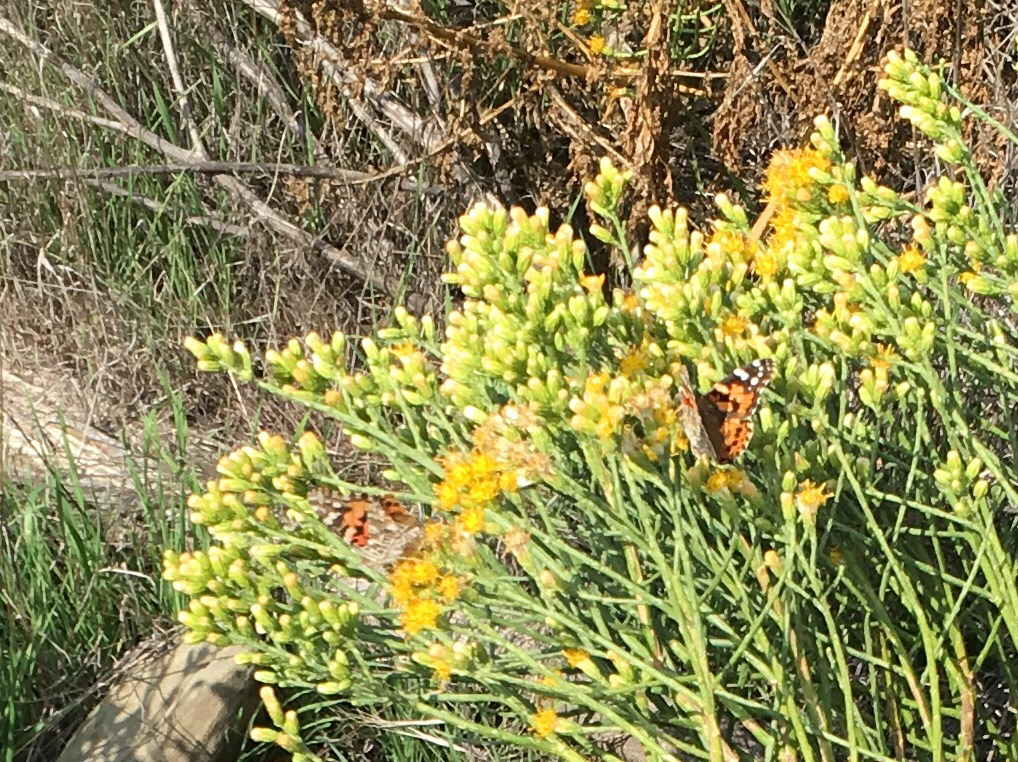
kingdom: Animalia
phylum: Arthropoda
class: Insecta
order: Lepidoptera
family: Nymphalidae
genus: Vanessa
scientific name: Vanessa cardui
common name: Painted lady
